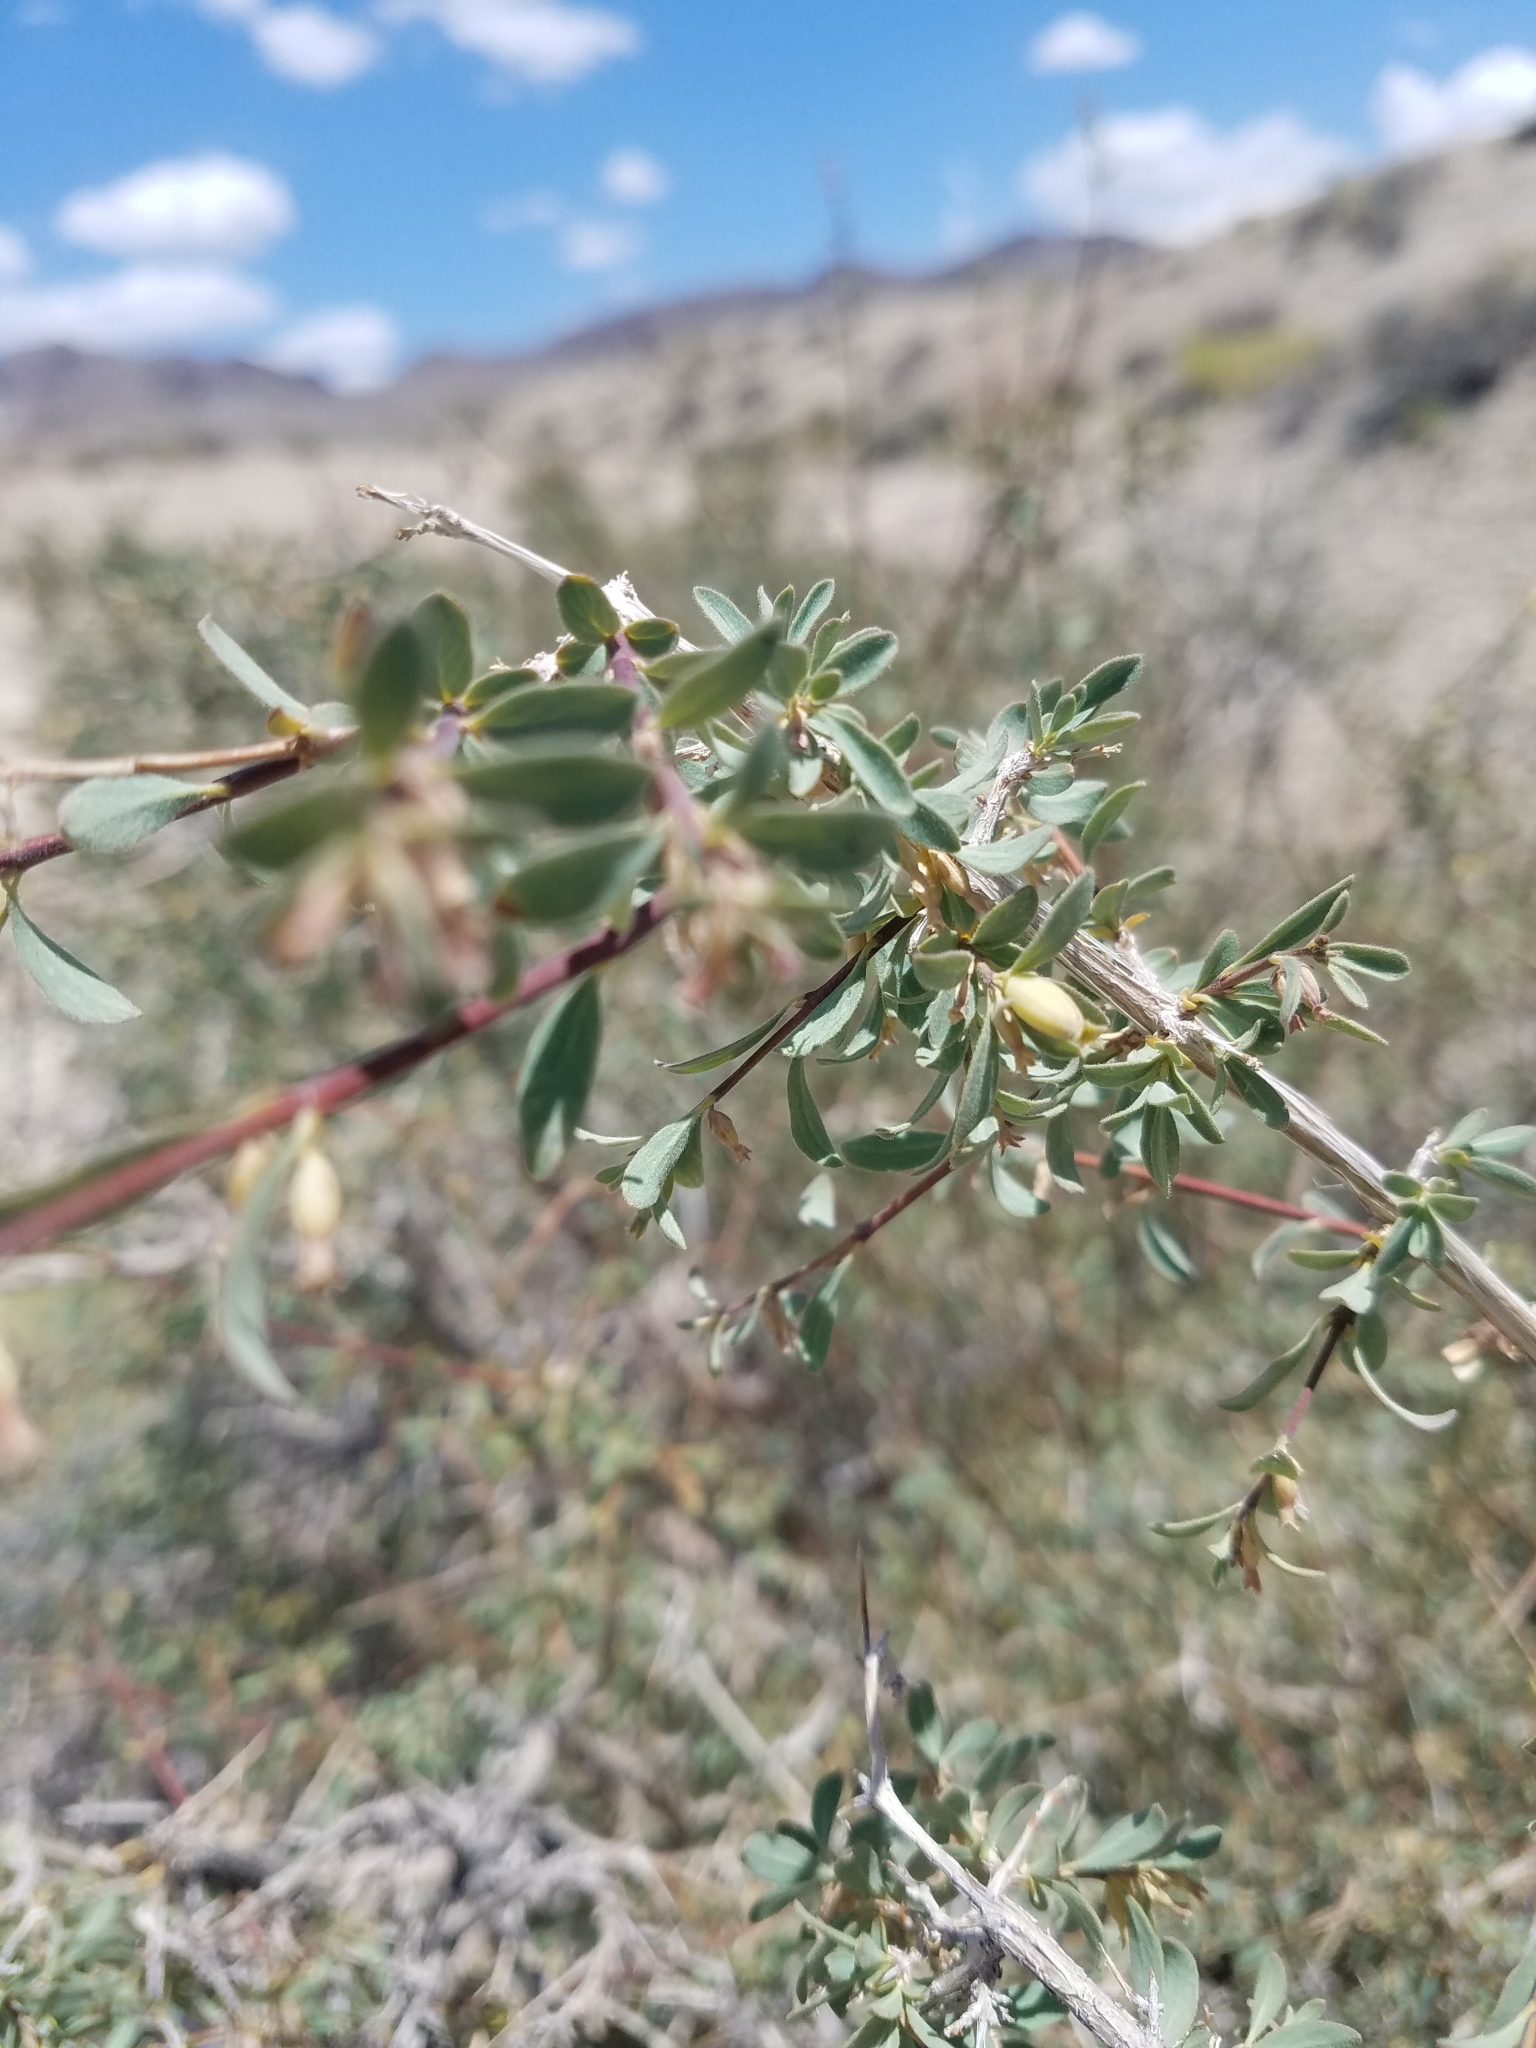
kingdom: Plantae
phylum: Tracheophyta
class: Magnoliopsida
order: Dipsacales
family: Caprifoliaceae
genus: Symphoricarpos
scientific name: Symphoricarpos longiflorus
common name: Fragrant snowberry
